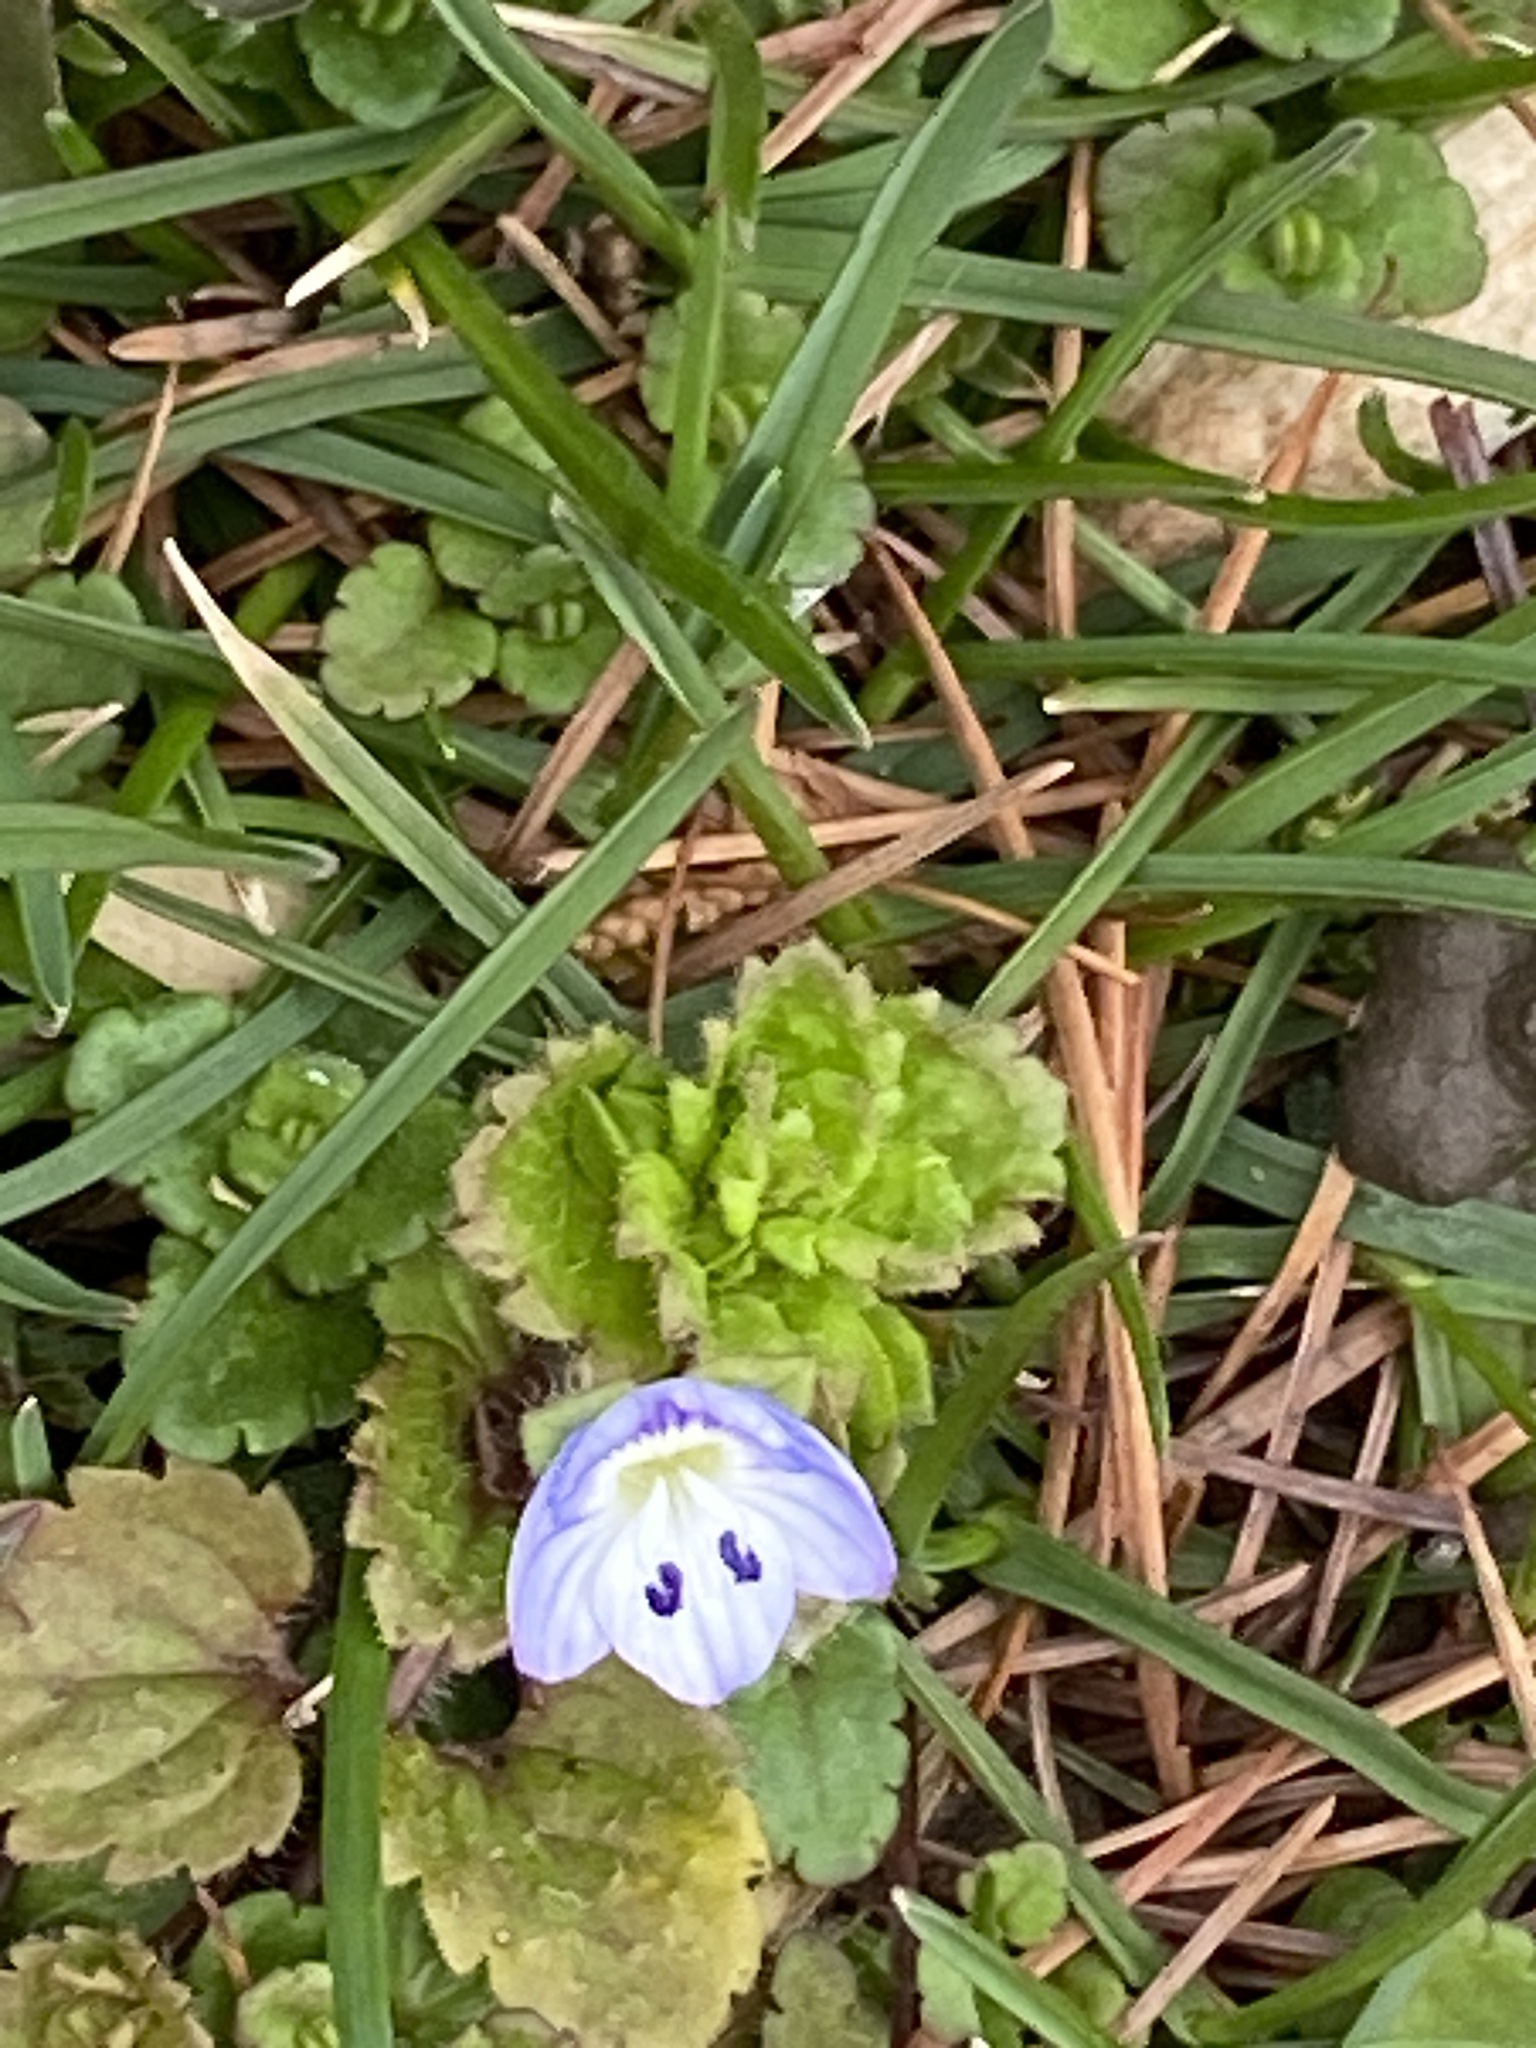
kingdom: Plantae
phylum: Tracheophyta
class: Magnoliopsida
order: Lamiales
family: Plantaginaceae
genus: Veronica
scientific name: Veronica persica
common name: Common field-speedwell
